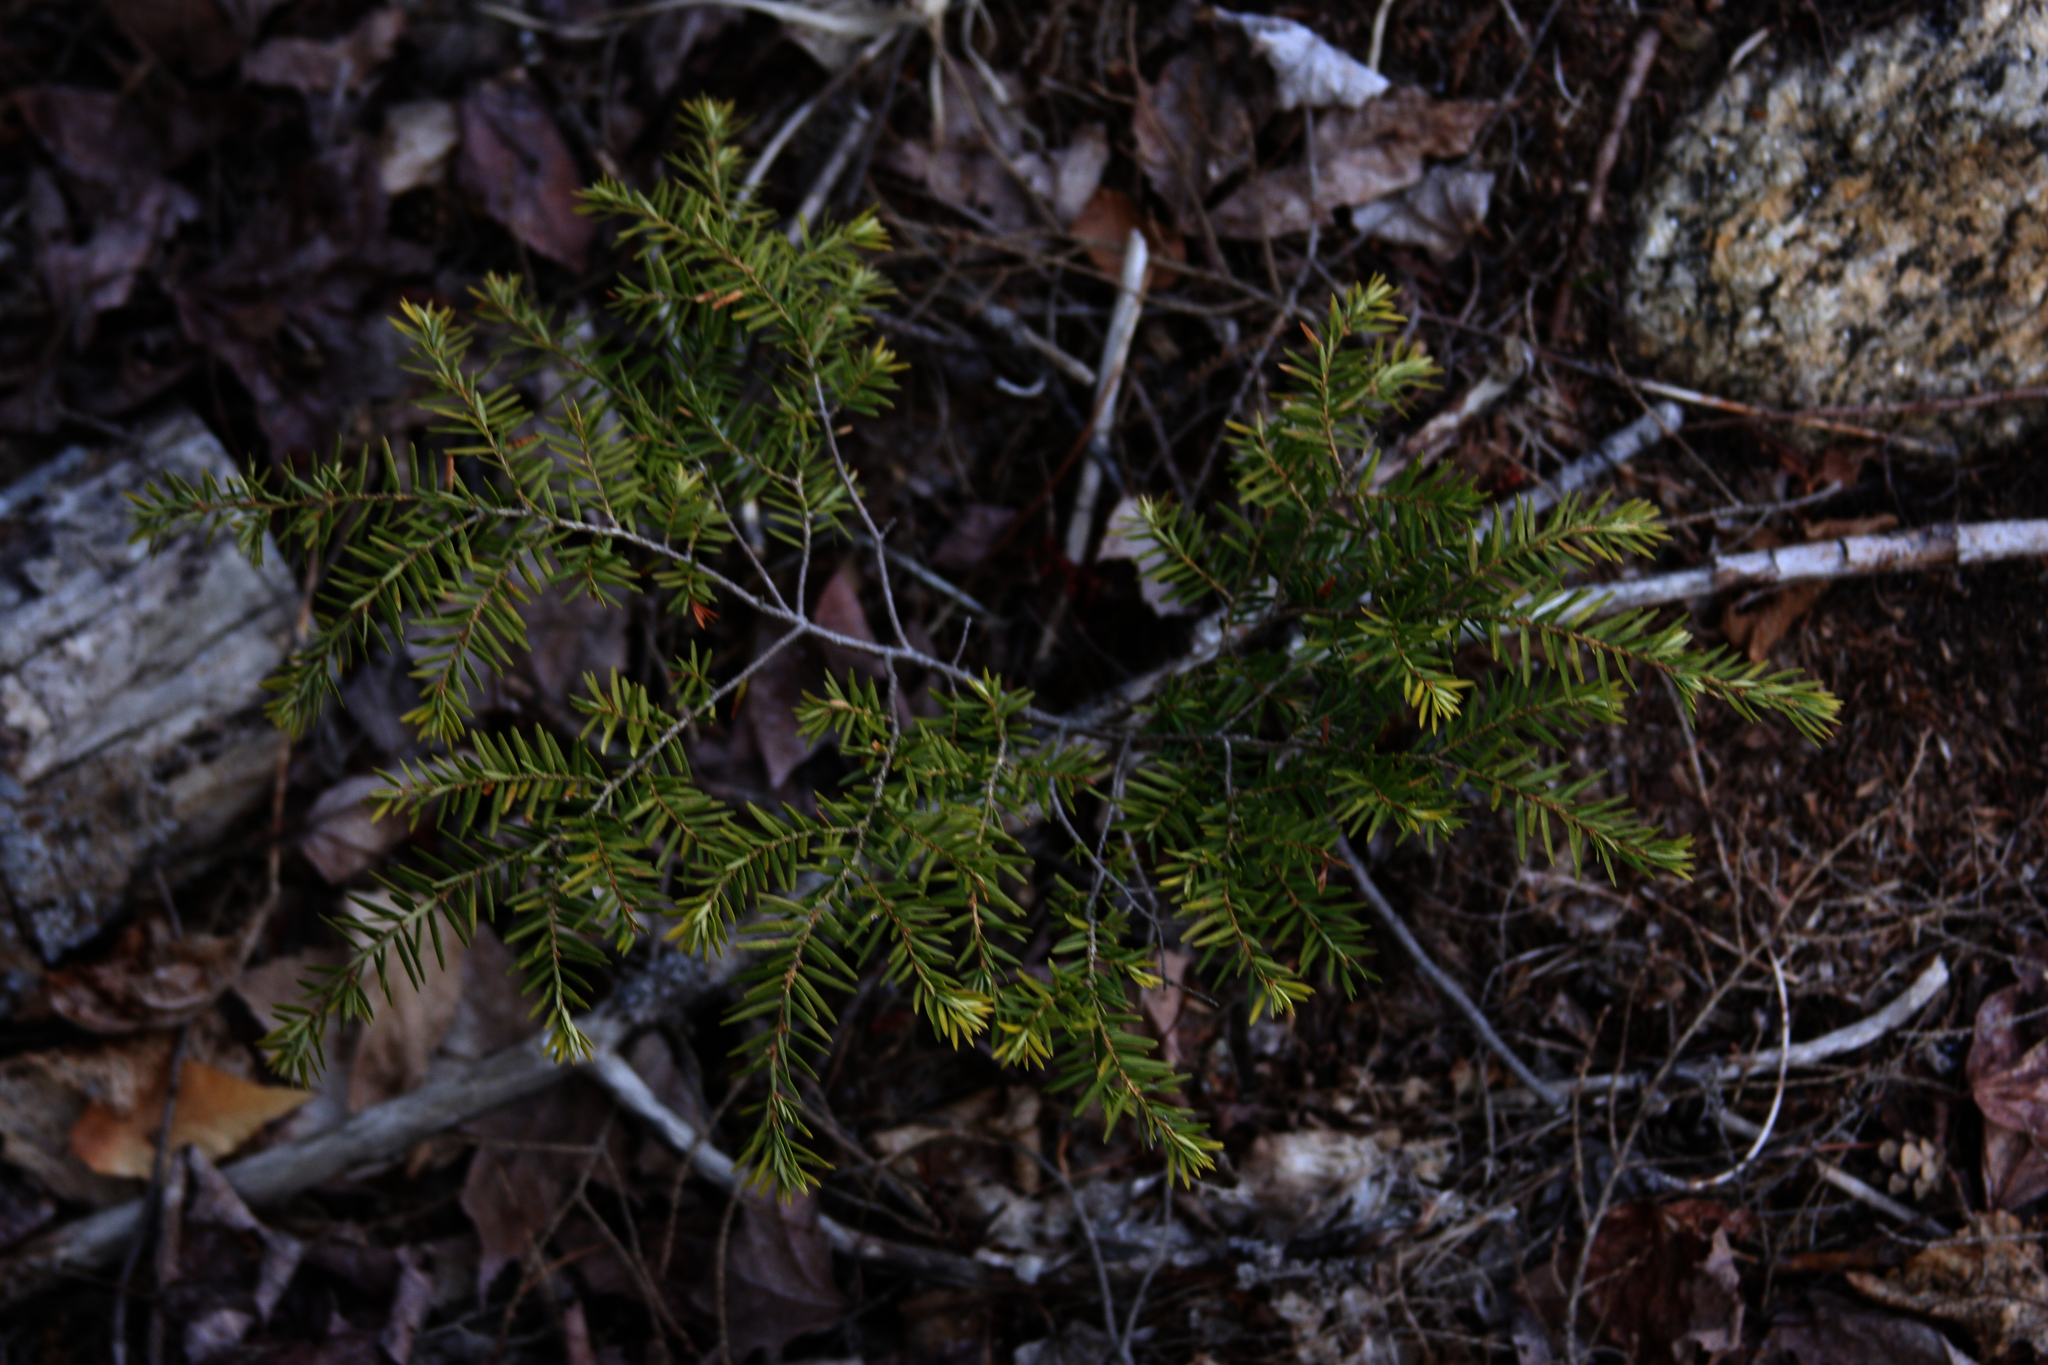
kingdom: Plantae
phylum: Tracheophyta
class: Pinopsida
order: Pinales
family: Pinaceae
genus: Tsuga
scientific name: Tsuga canadensis
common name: Eastern hemlock
